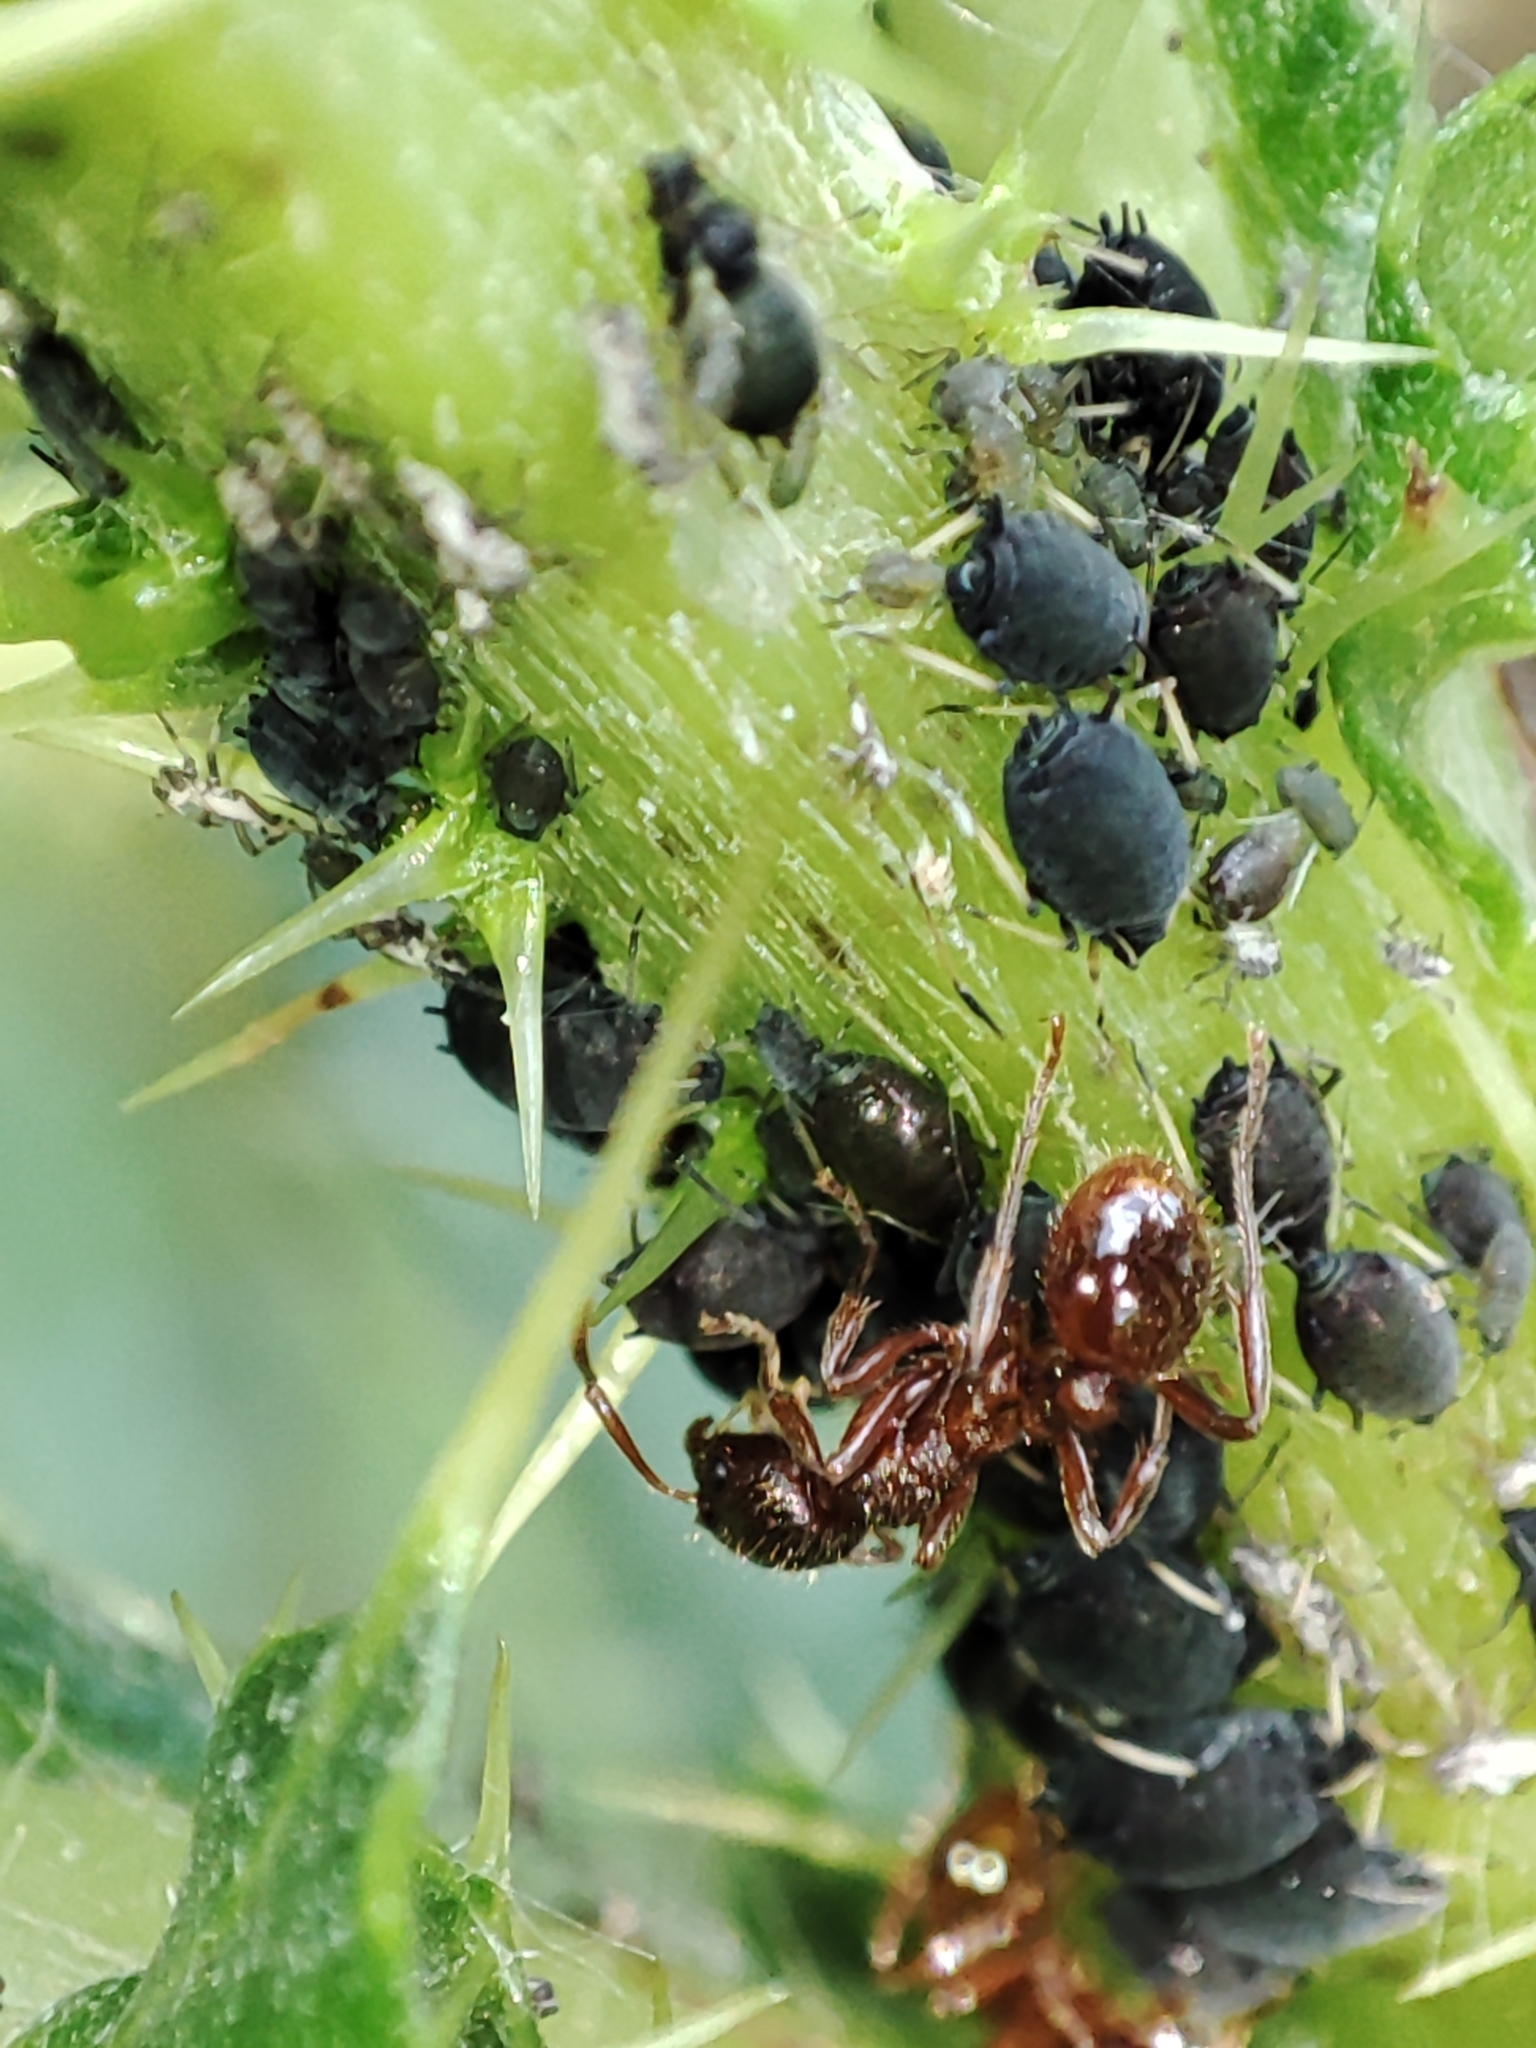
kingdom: Plantae
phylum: Tracheophyta
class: Magnoliopsida
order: Asterales
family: Asteraceae
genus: Cirsium
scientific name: Cirsium arvense
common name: Creeping thistle
